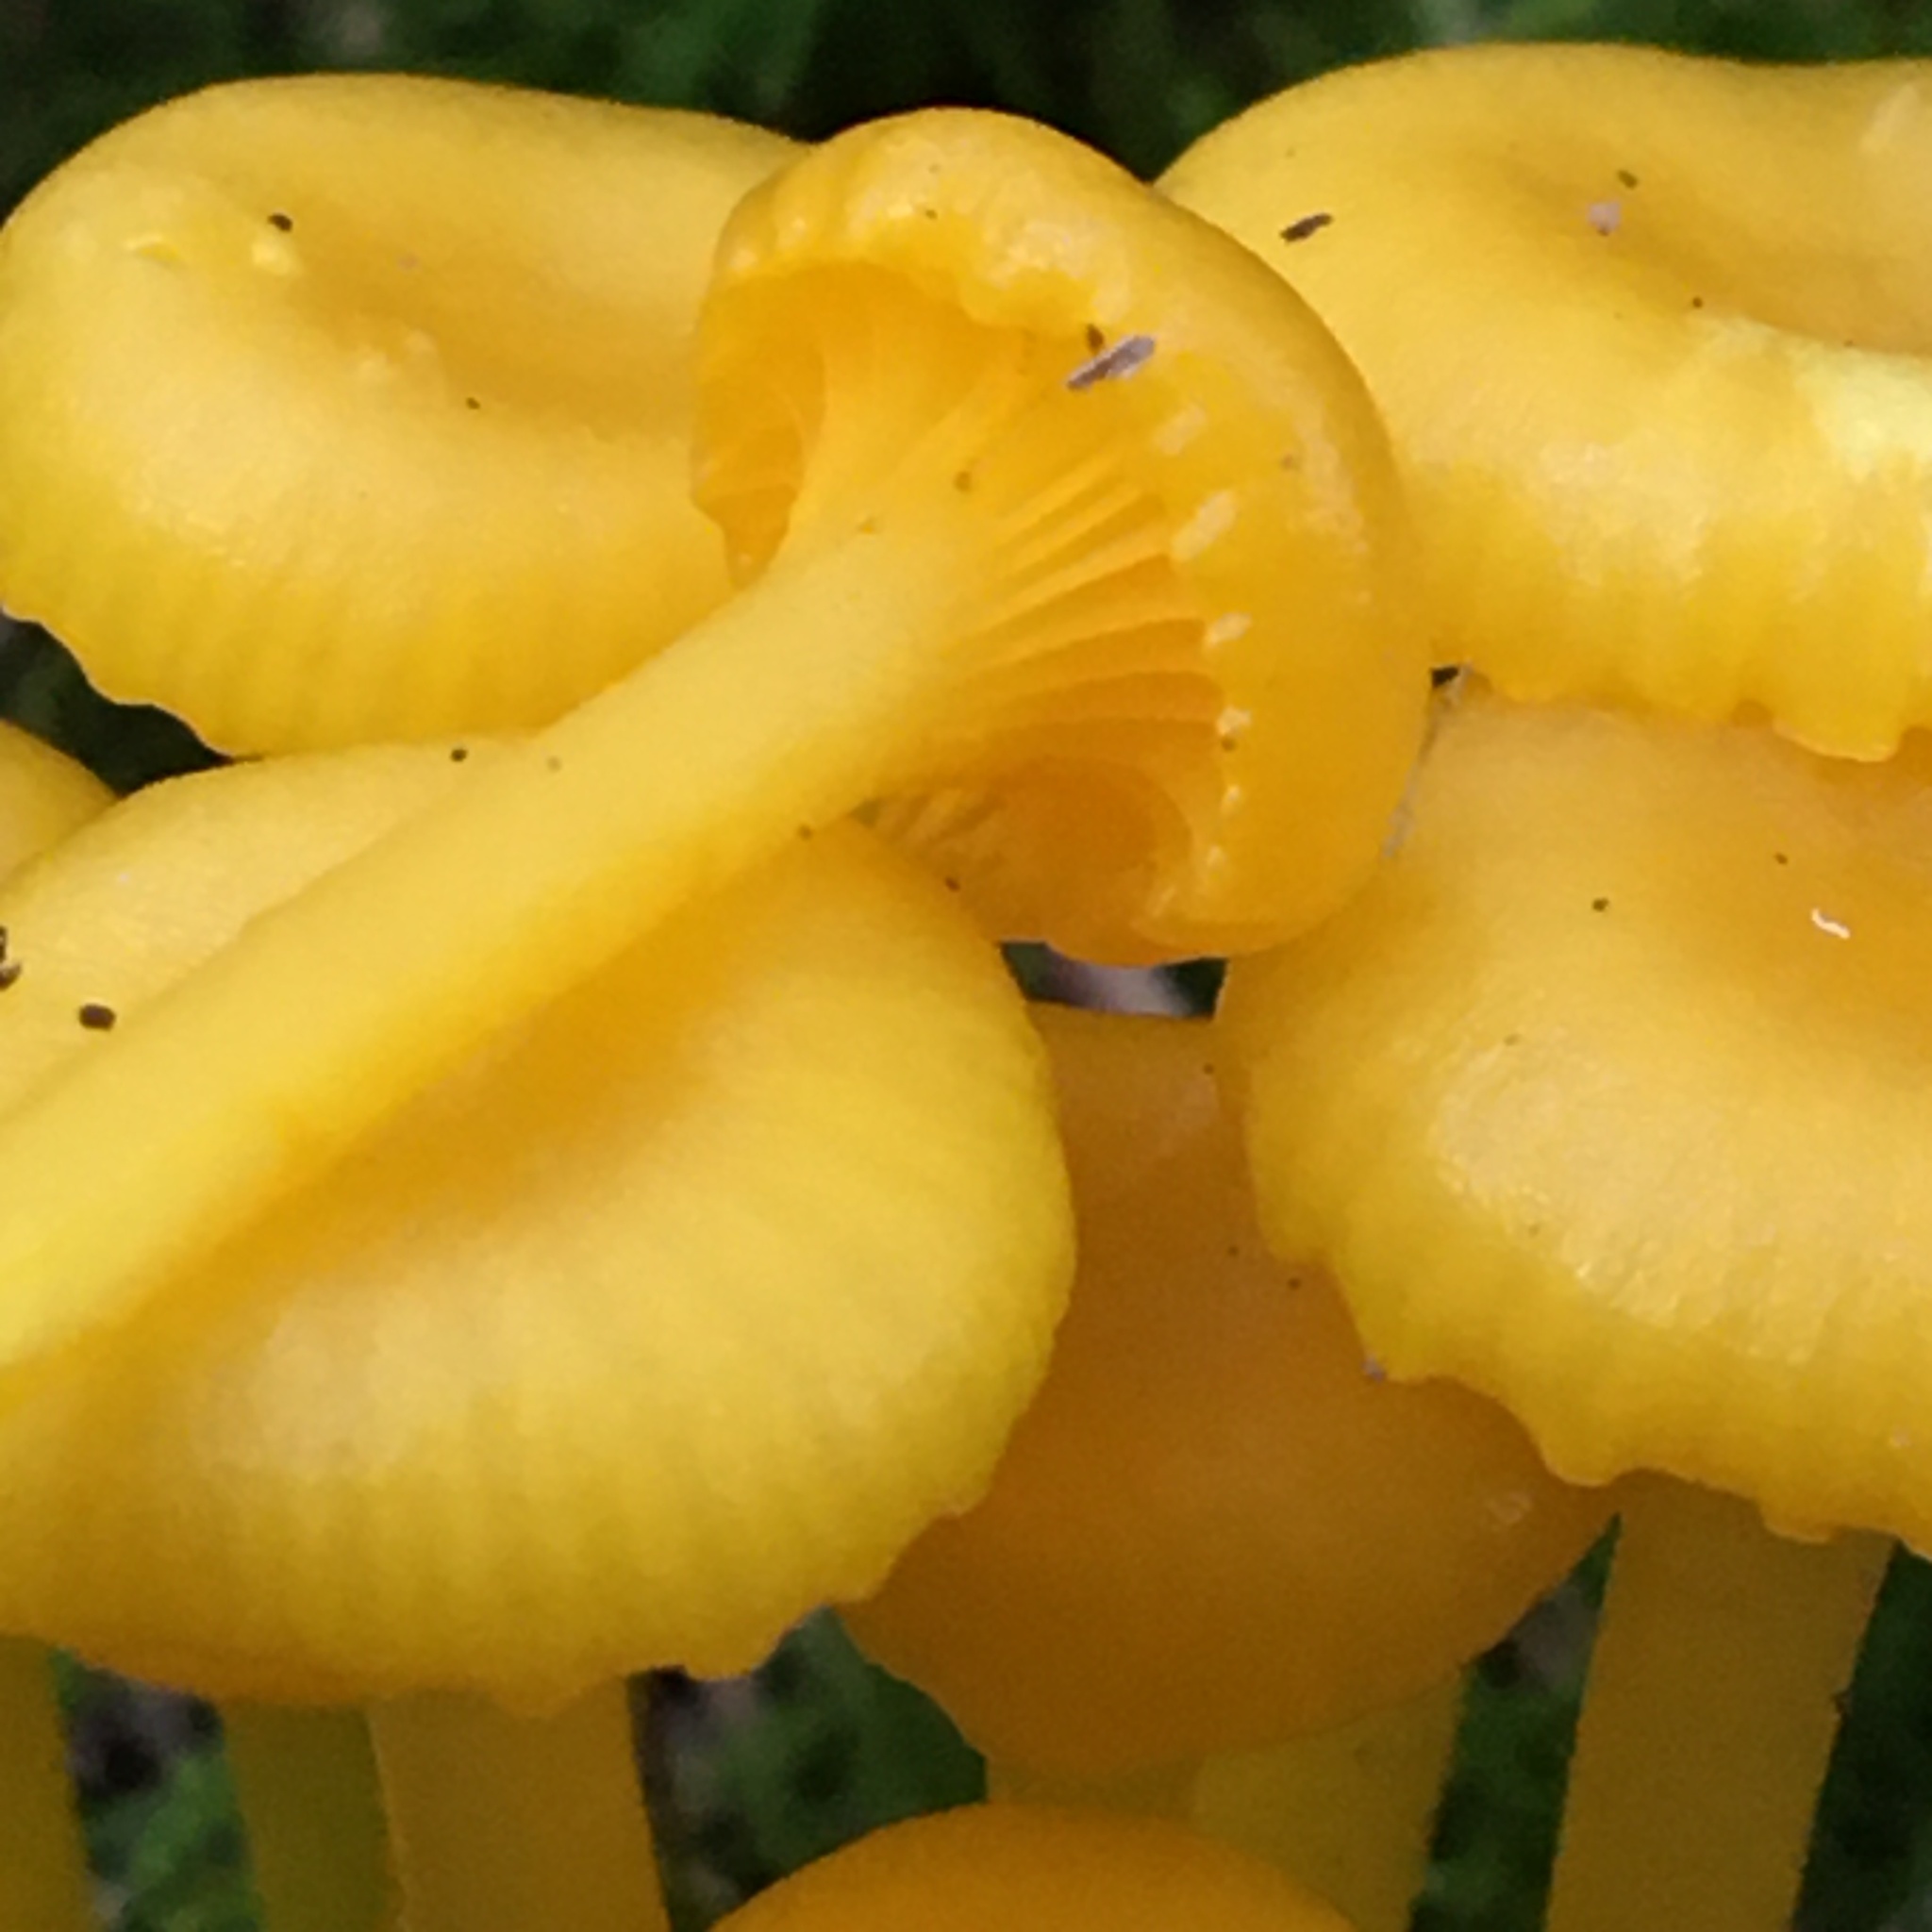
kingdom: Fungi
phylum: Basidiomycota
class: Agaricomycetes
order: Agaricales
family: Hygrophoraceae
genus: Gloioxanthomyces
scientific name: Gloioxanthomyces
